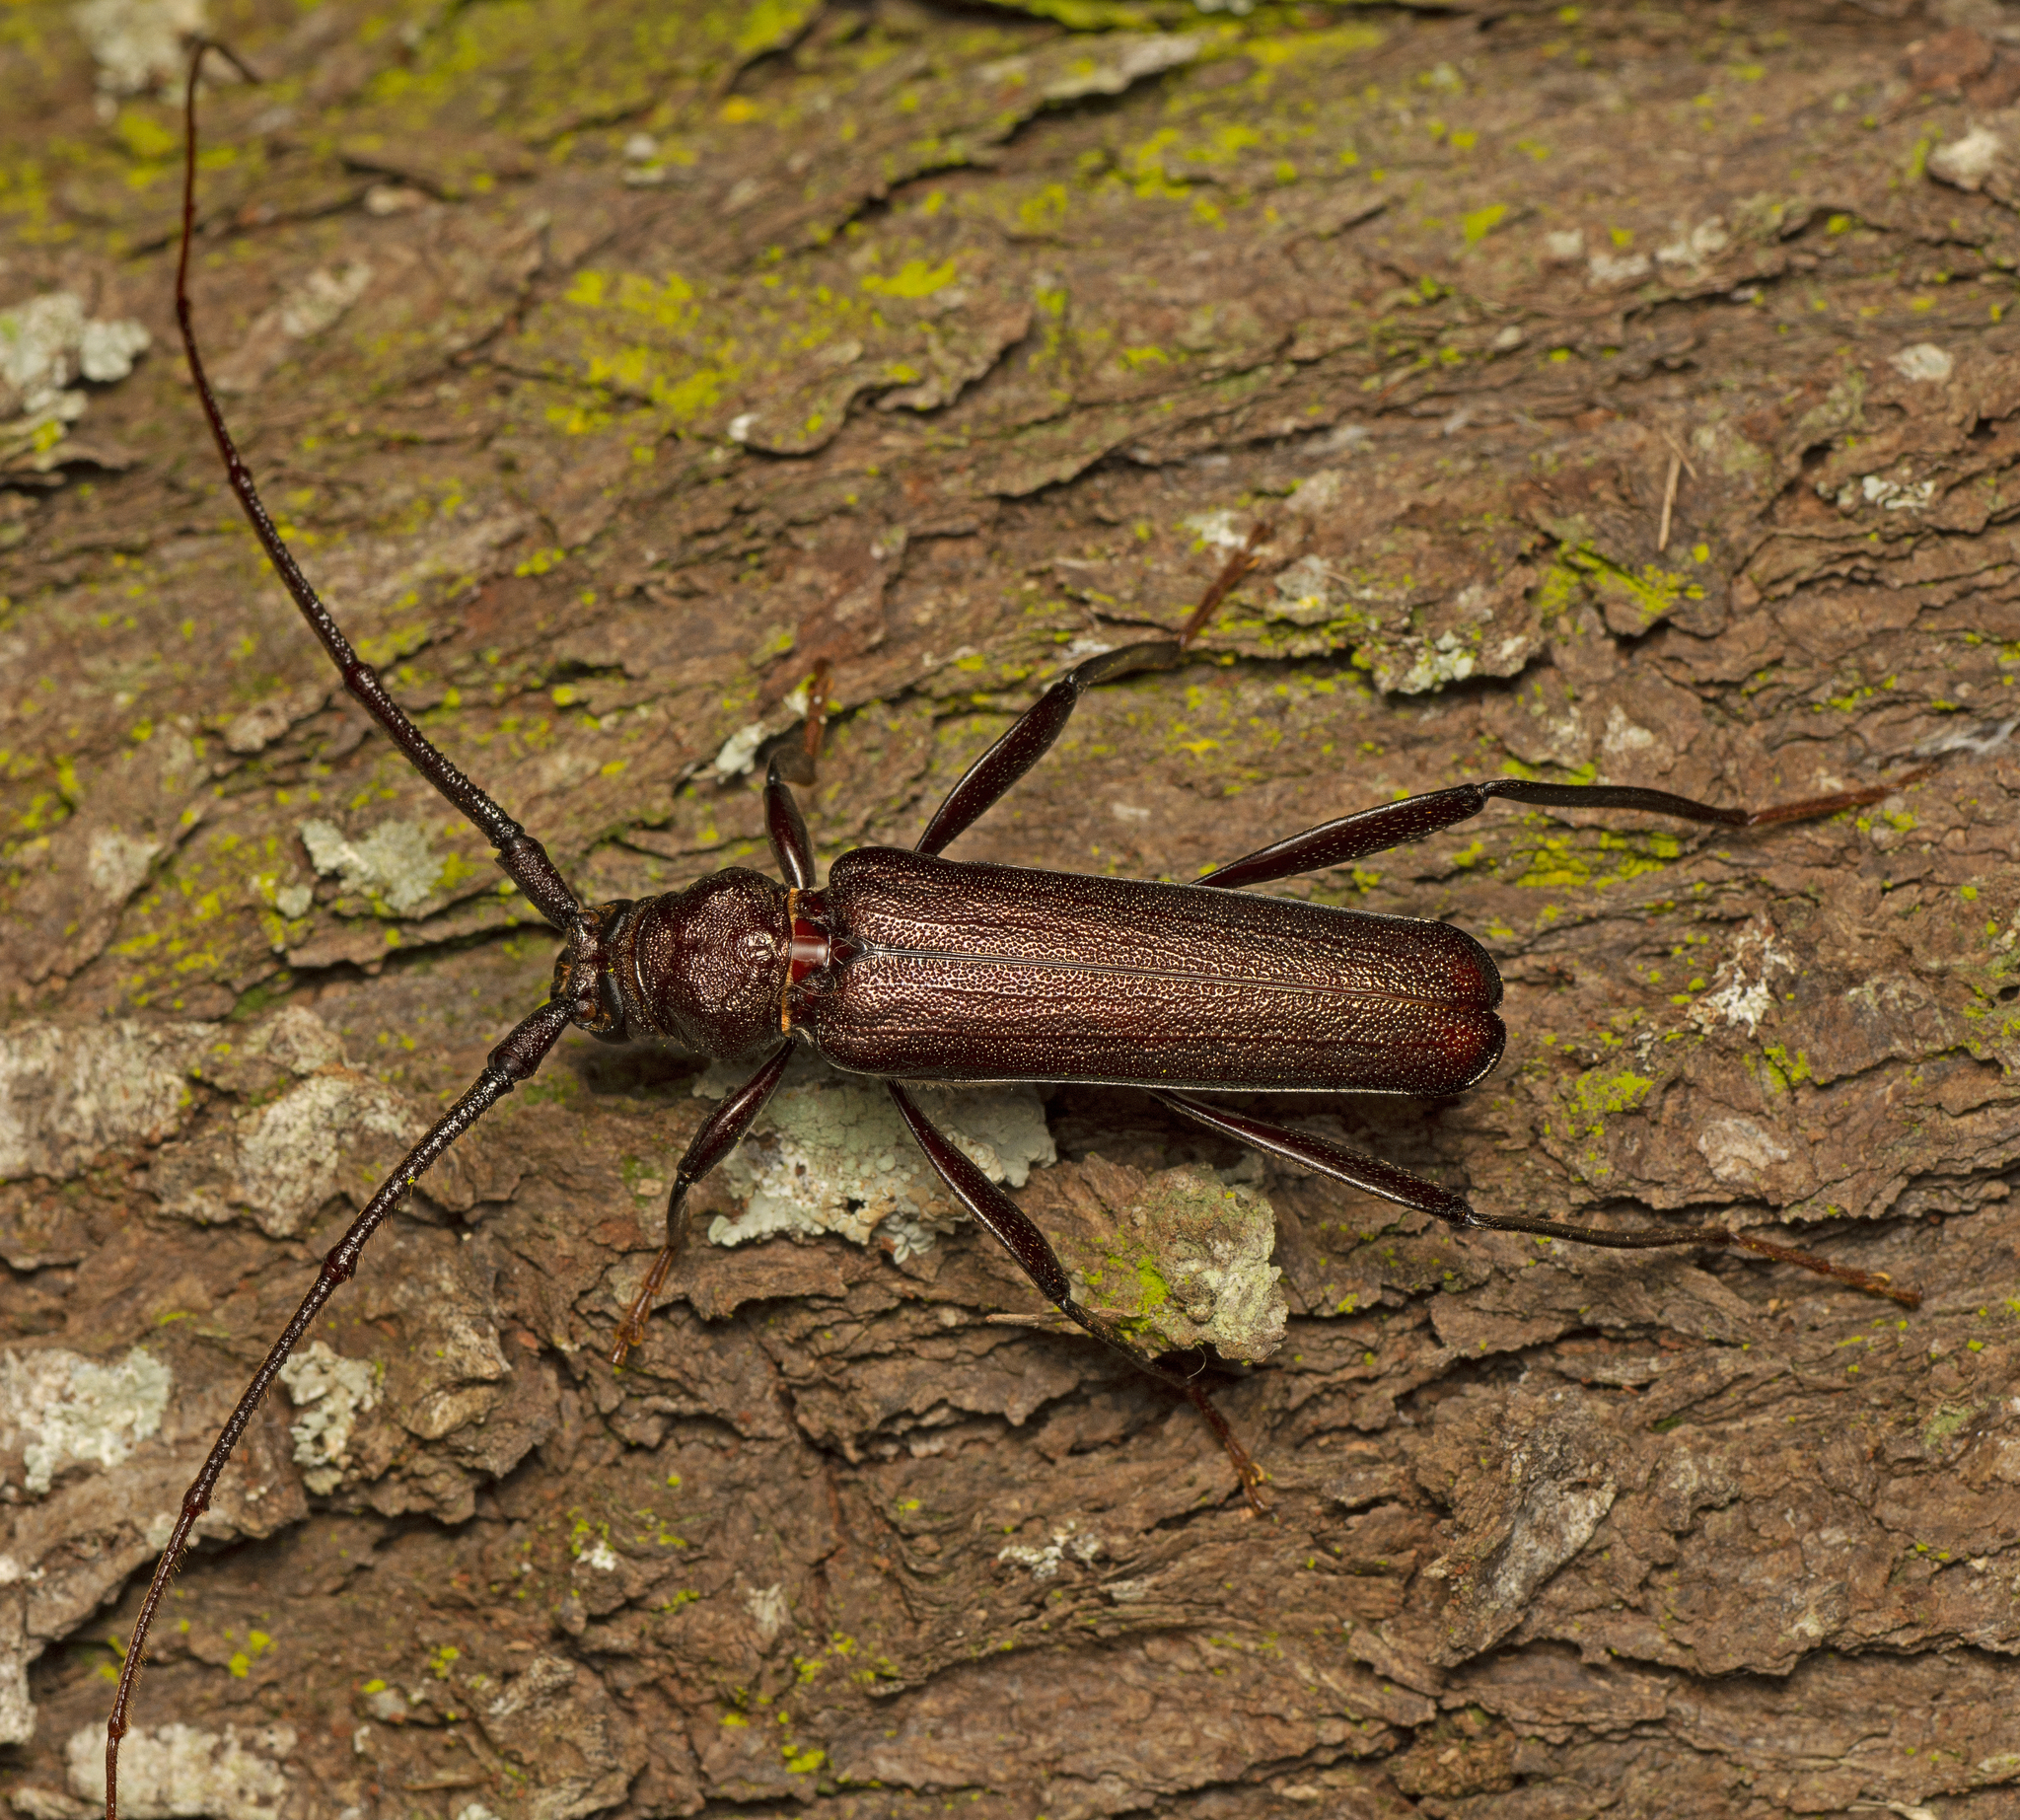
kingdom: Animalia
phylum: Arthropoda
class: Insecta
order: Coleoptera
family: Cerambycidae
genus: Xystrocera
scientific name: Xystrocera virescens
